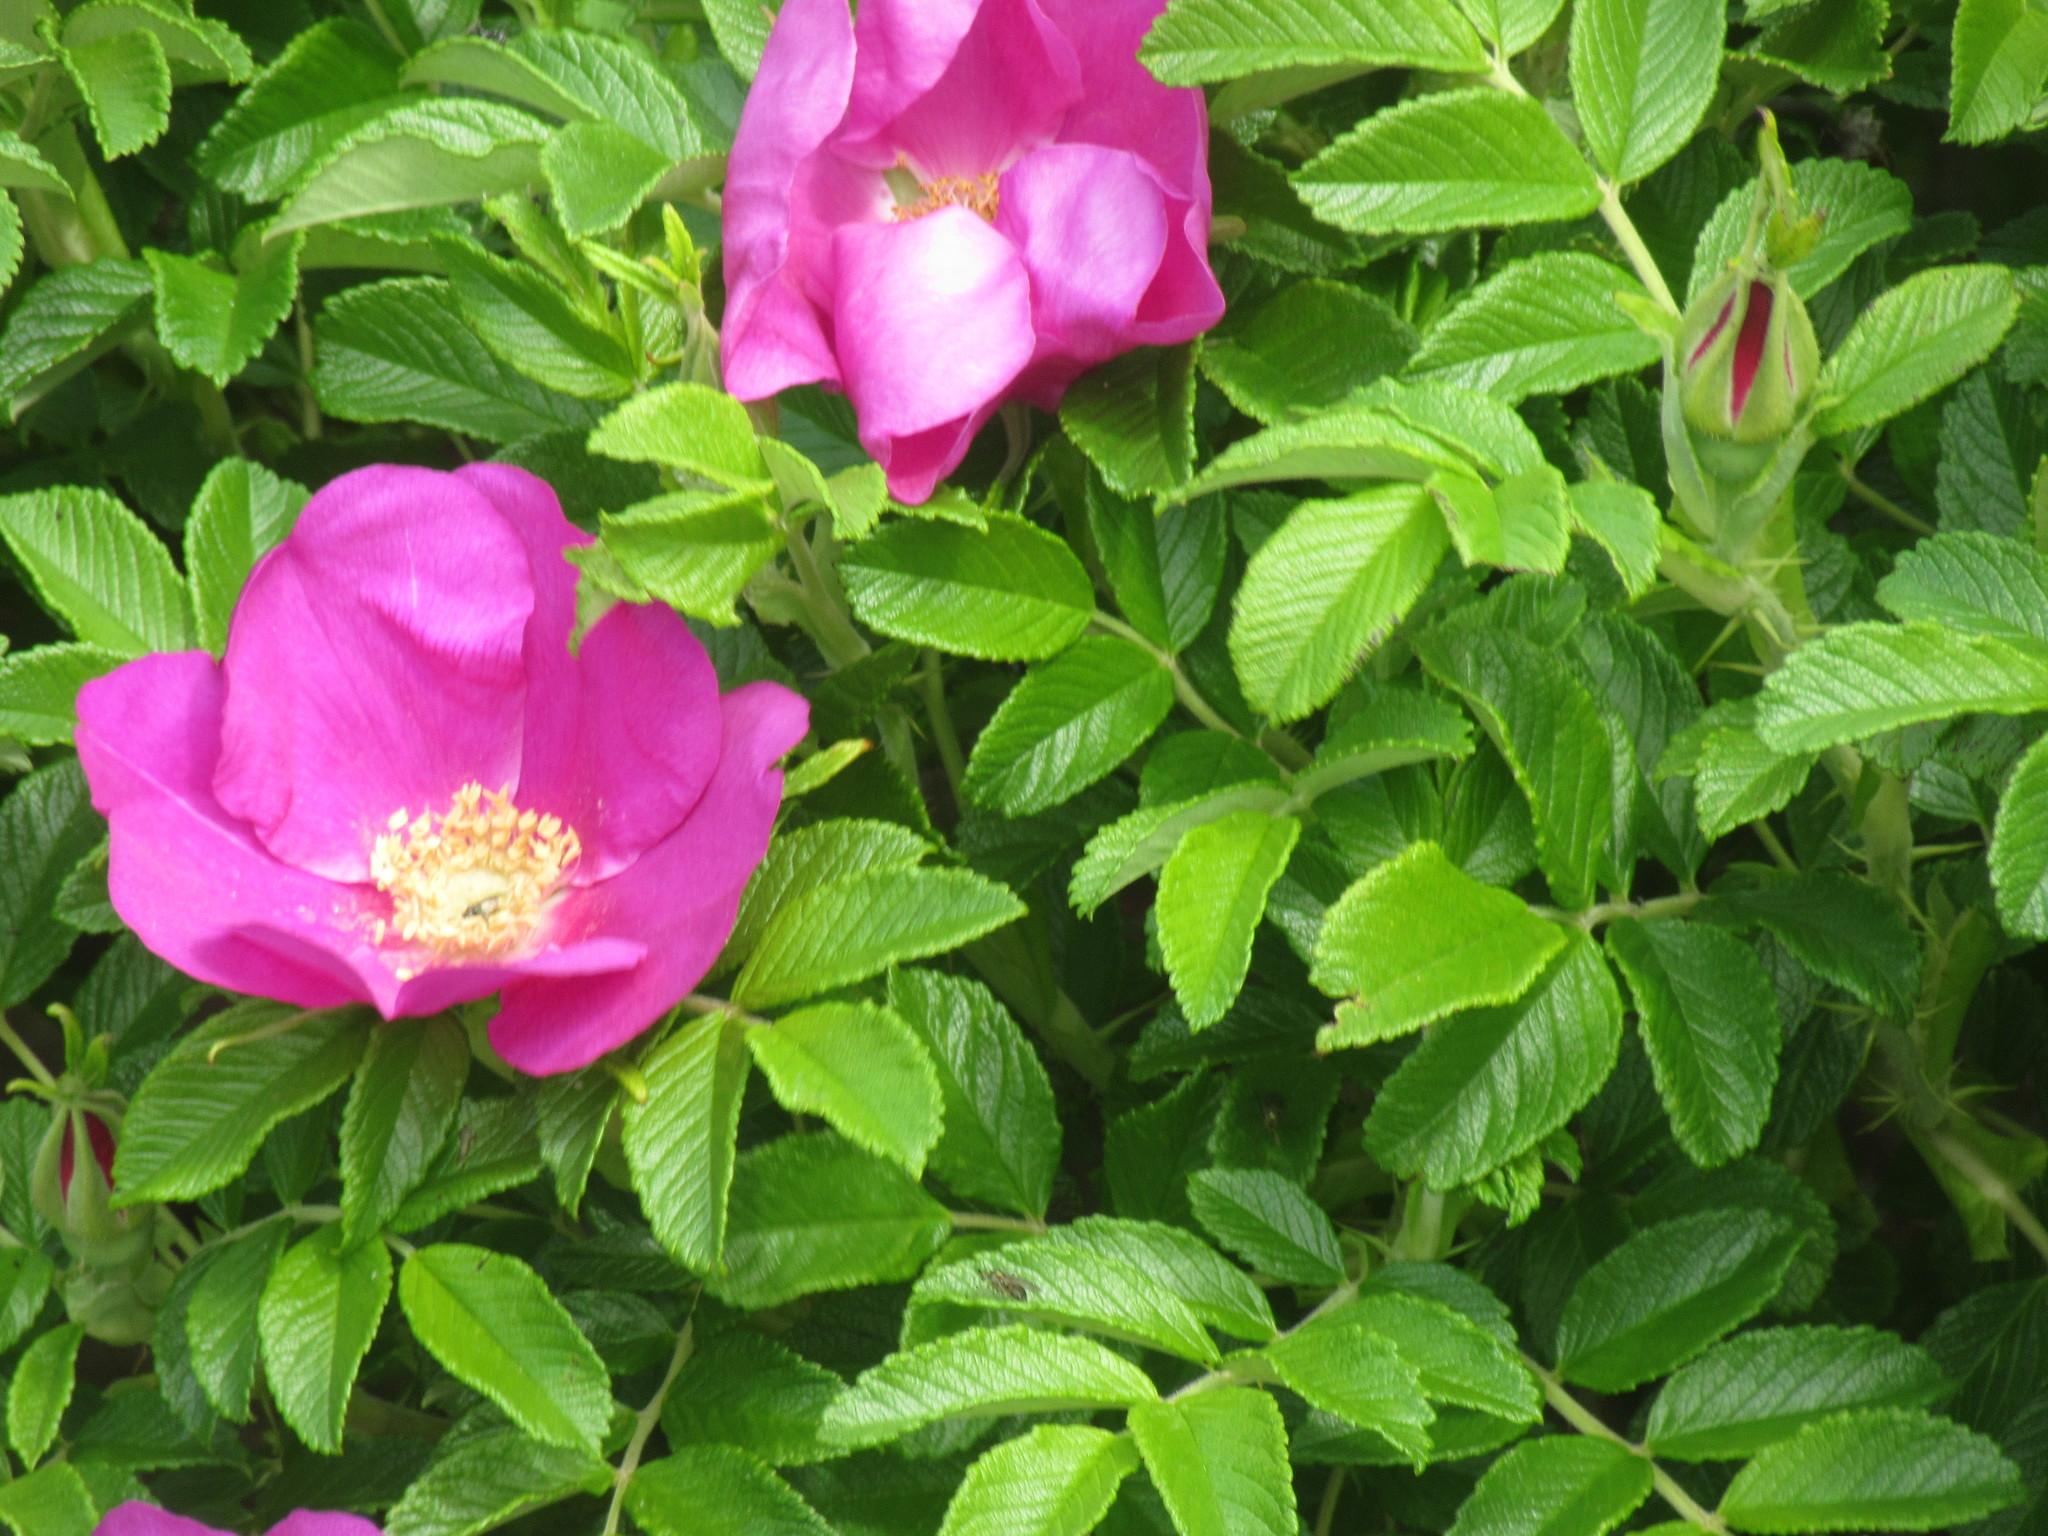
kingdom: Plantae
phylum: Tracheophyta
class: Magnoliopsida
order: Rosales
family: Rosaceae
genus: Rosa
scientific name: Rosa rugosa
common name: Japanese rose
